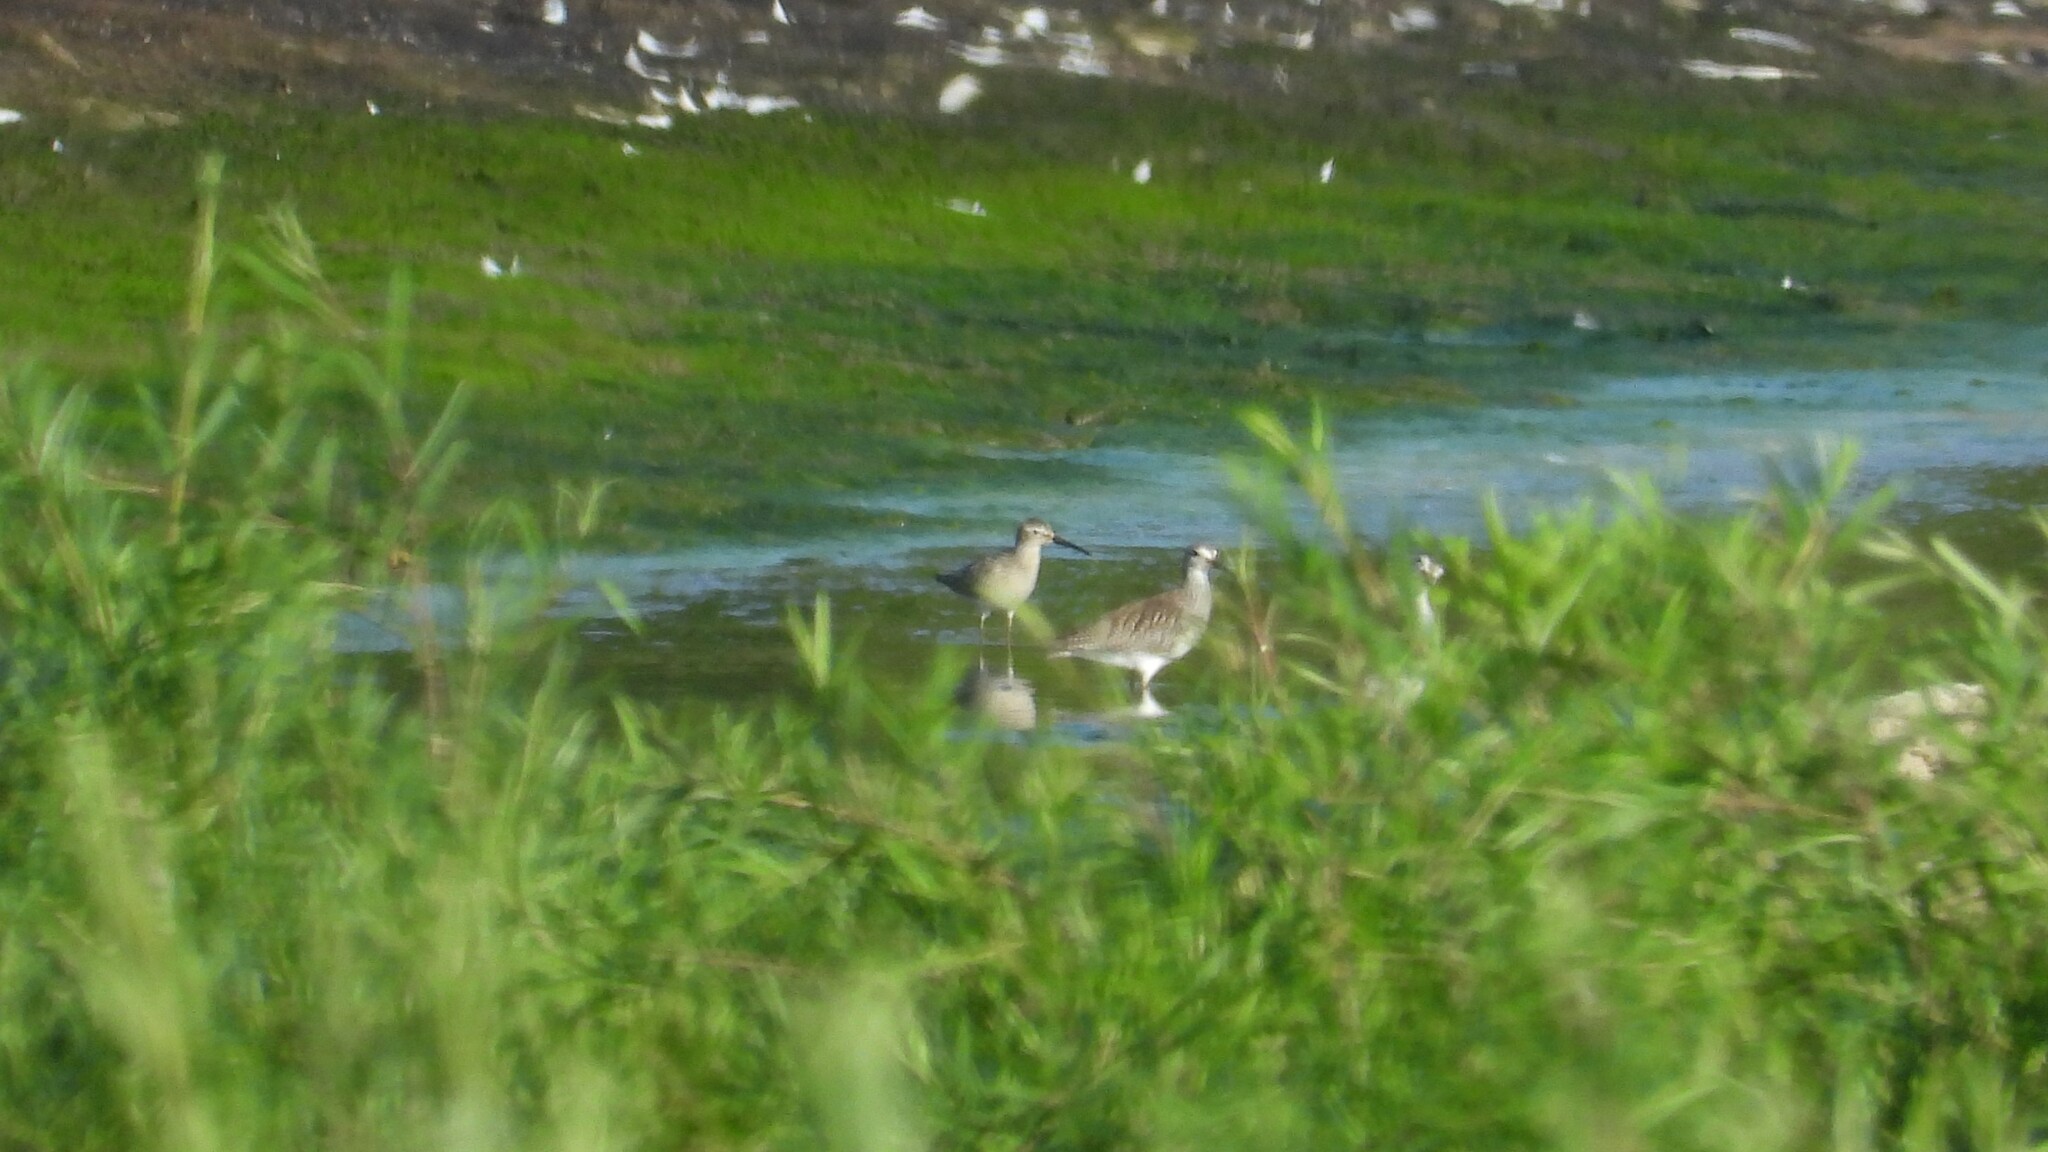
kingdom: Animalia
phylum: Chordata
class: Aves
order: Charadriiformes
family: Scolopacidae
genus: Calidris
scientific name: Calidris himantopus
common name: Stilt sandpiper
